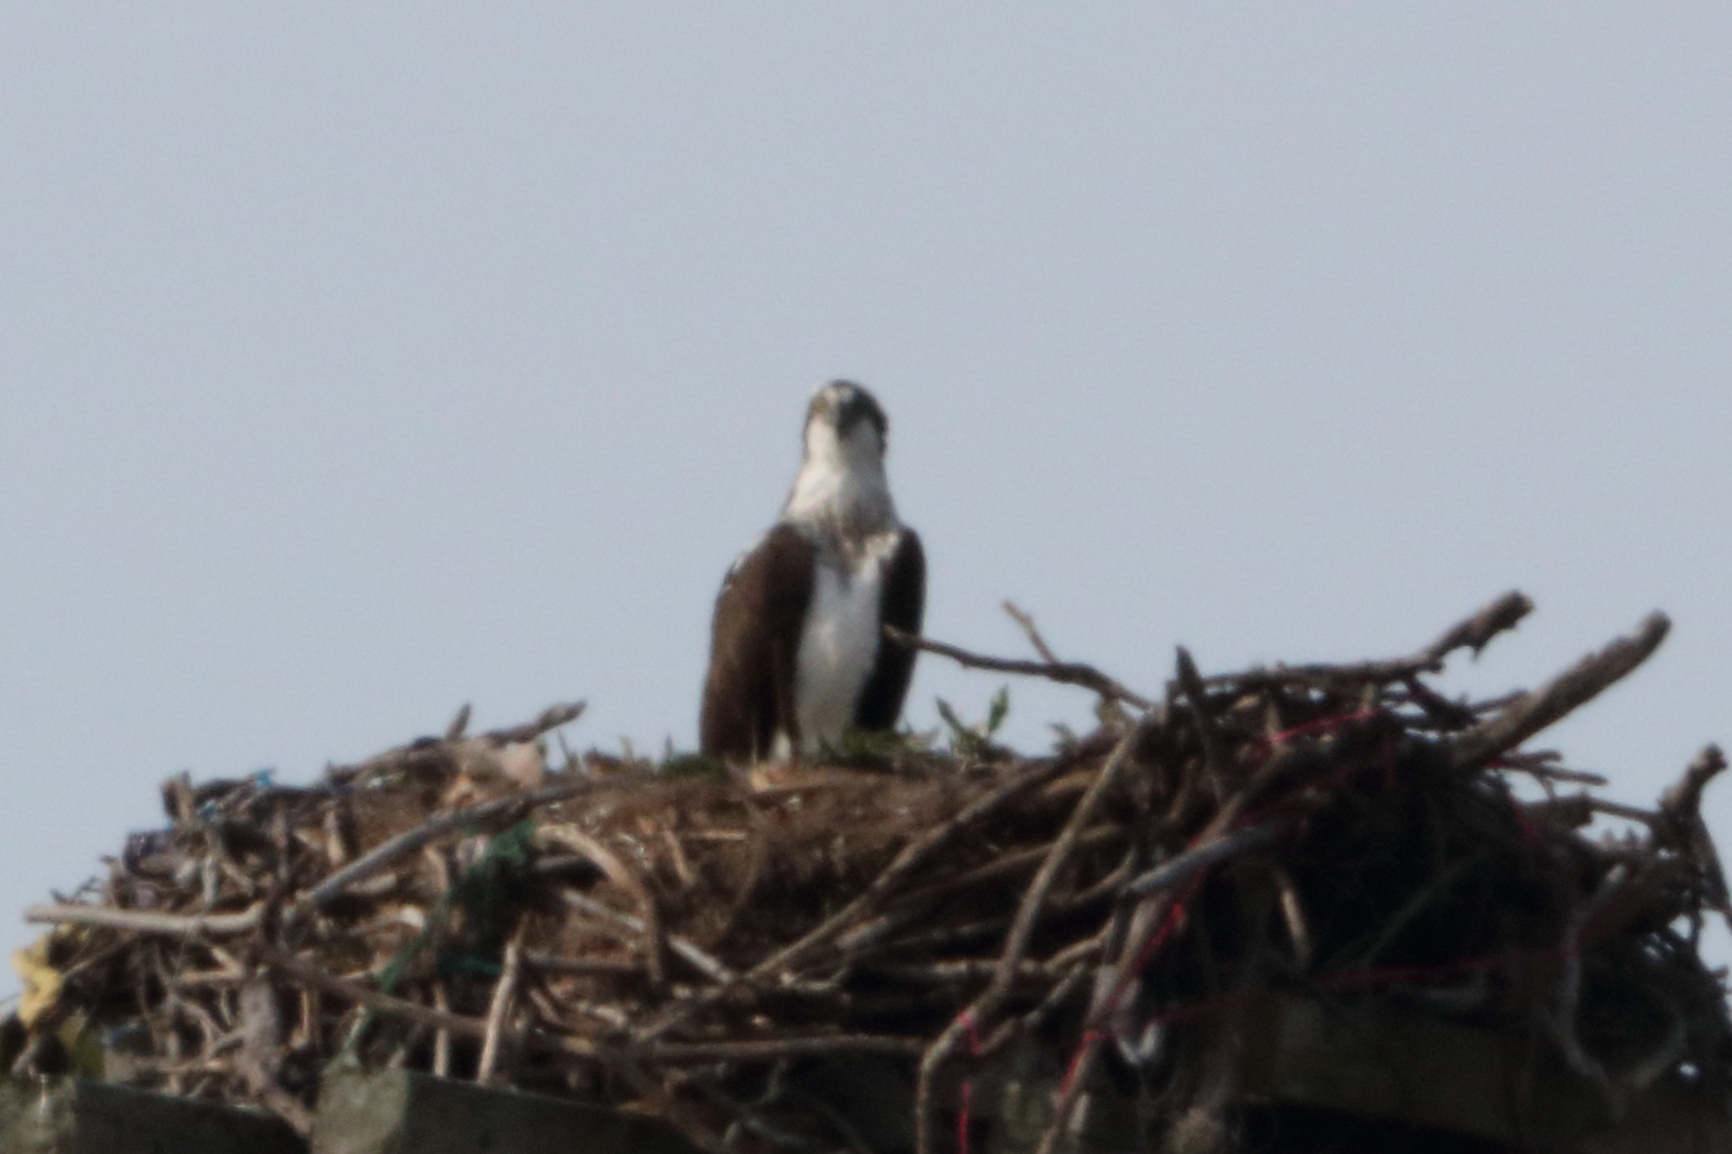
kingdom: Animalia
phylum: Chordata
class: Aves
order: Accipitriformes
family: Pandionidae
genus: Pandion
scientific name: Pandion haliaetus
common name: Osprey
